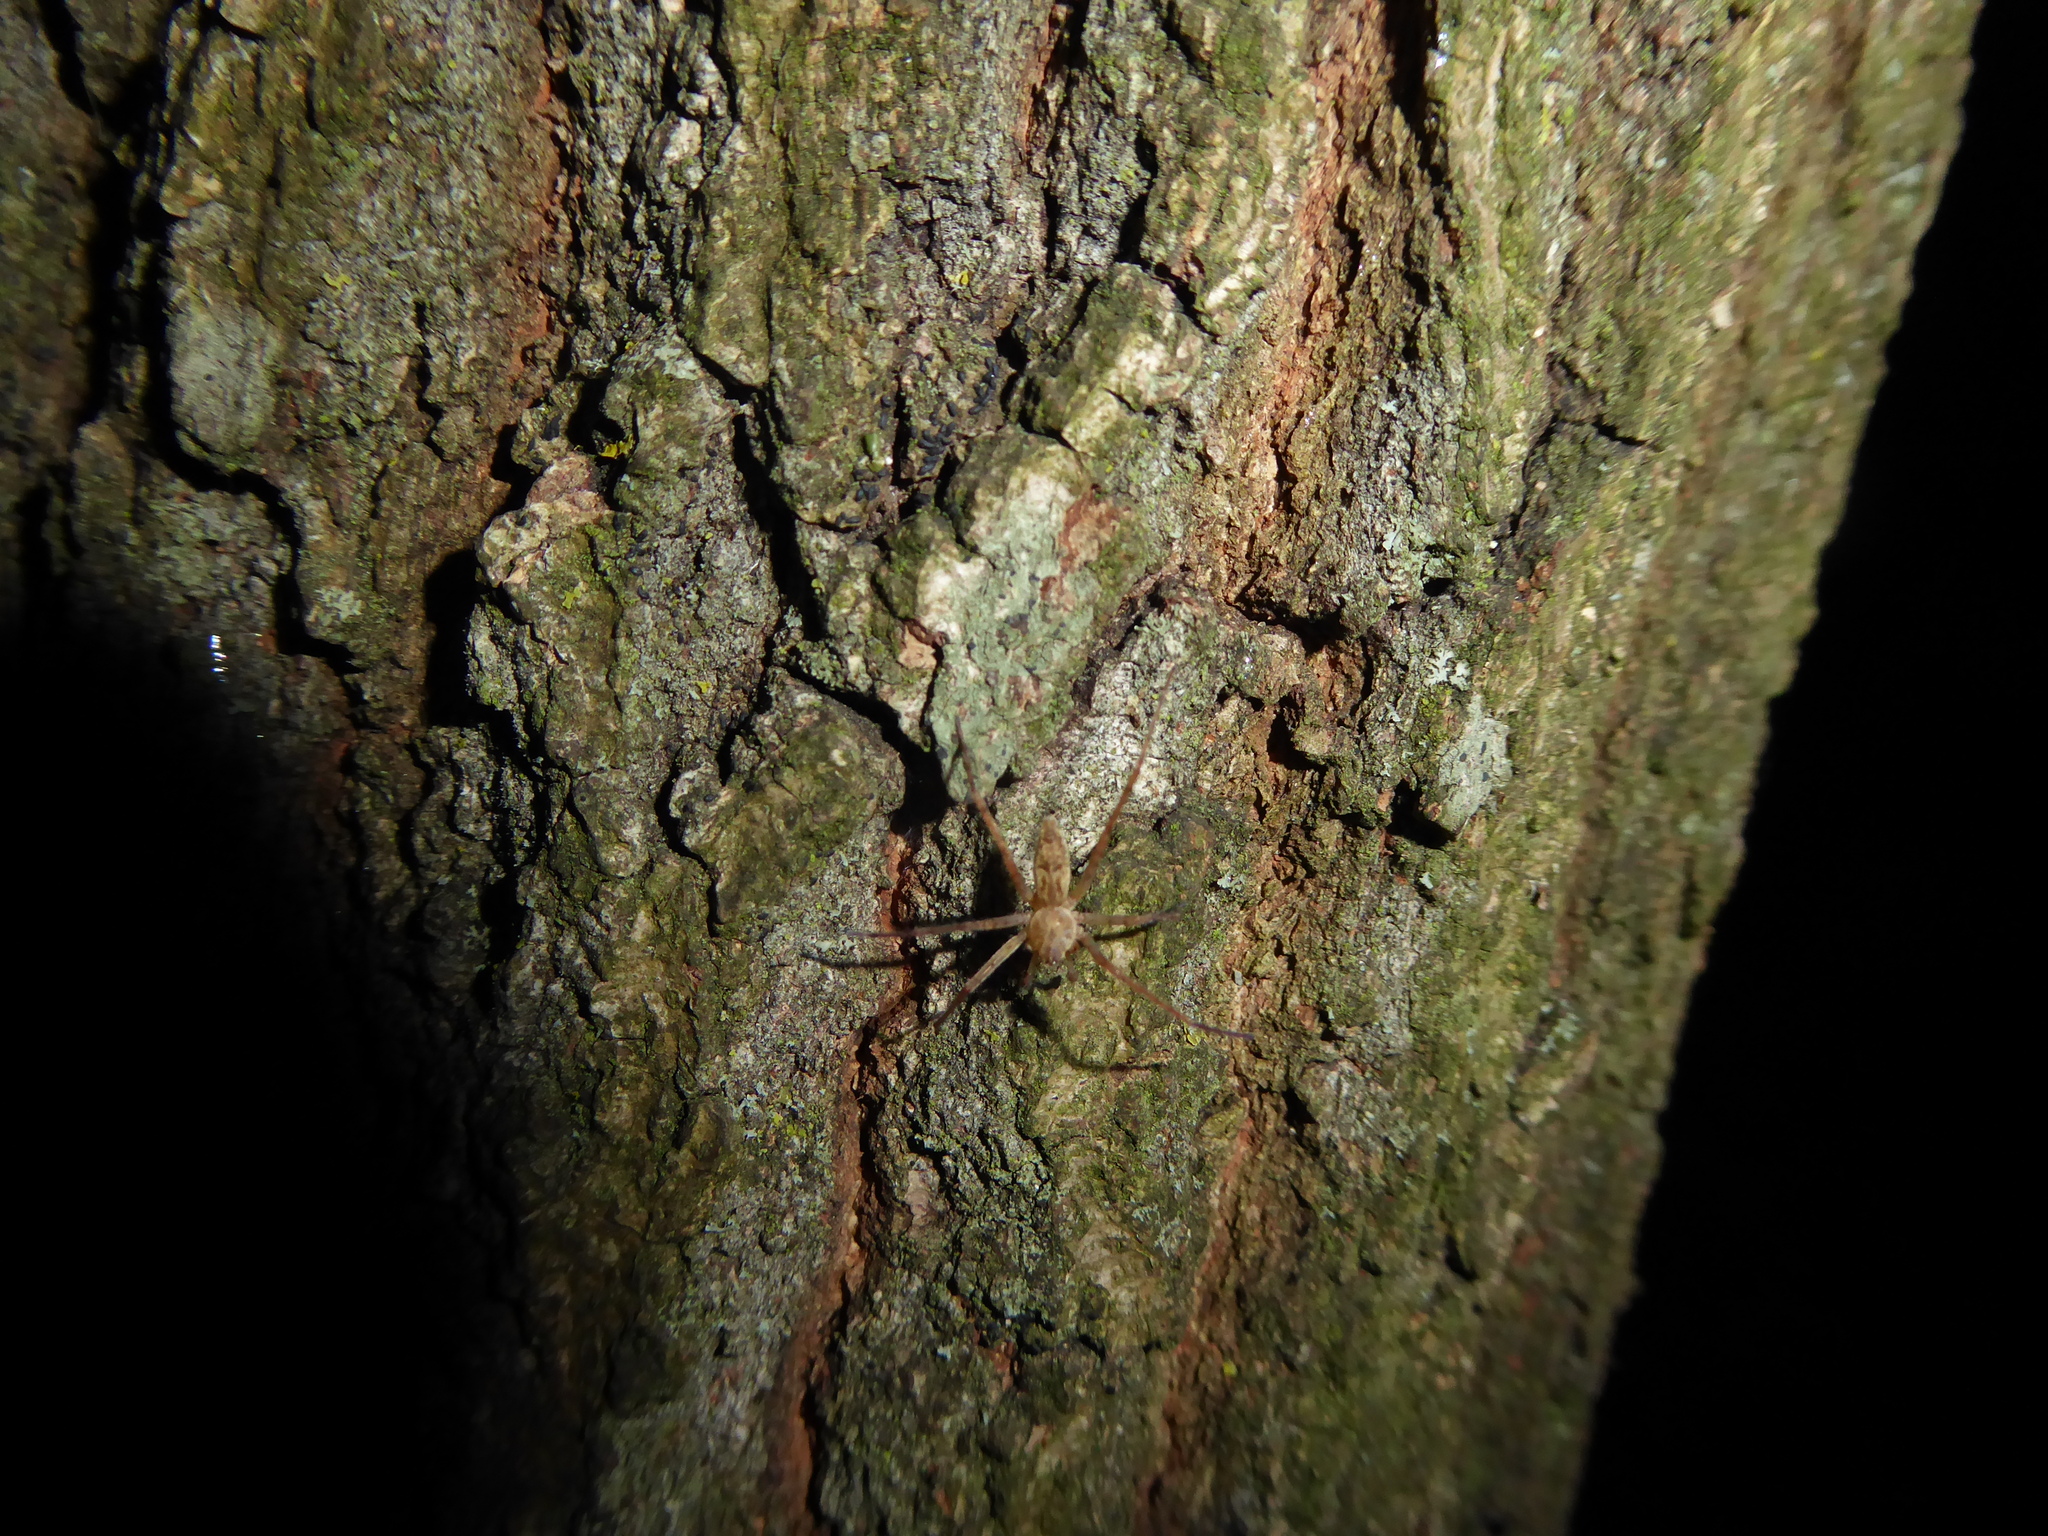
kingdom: Animalia
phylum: Arthropoda
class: Arachnida
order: Araneae
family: Anyphaenidae
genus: Anyphaena
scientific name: Anyphaena numida
